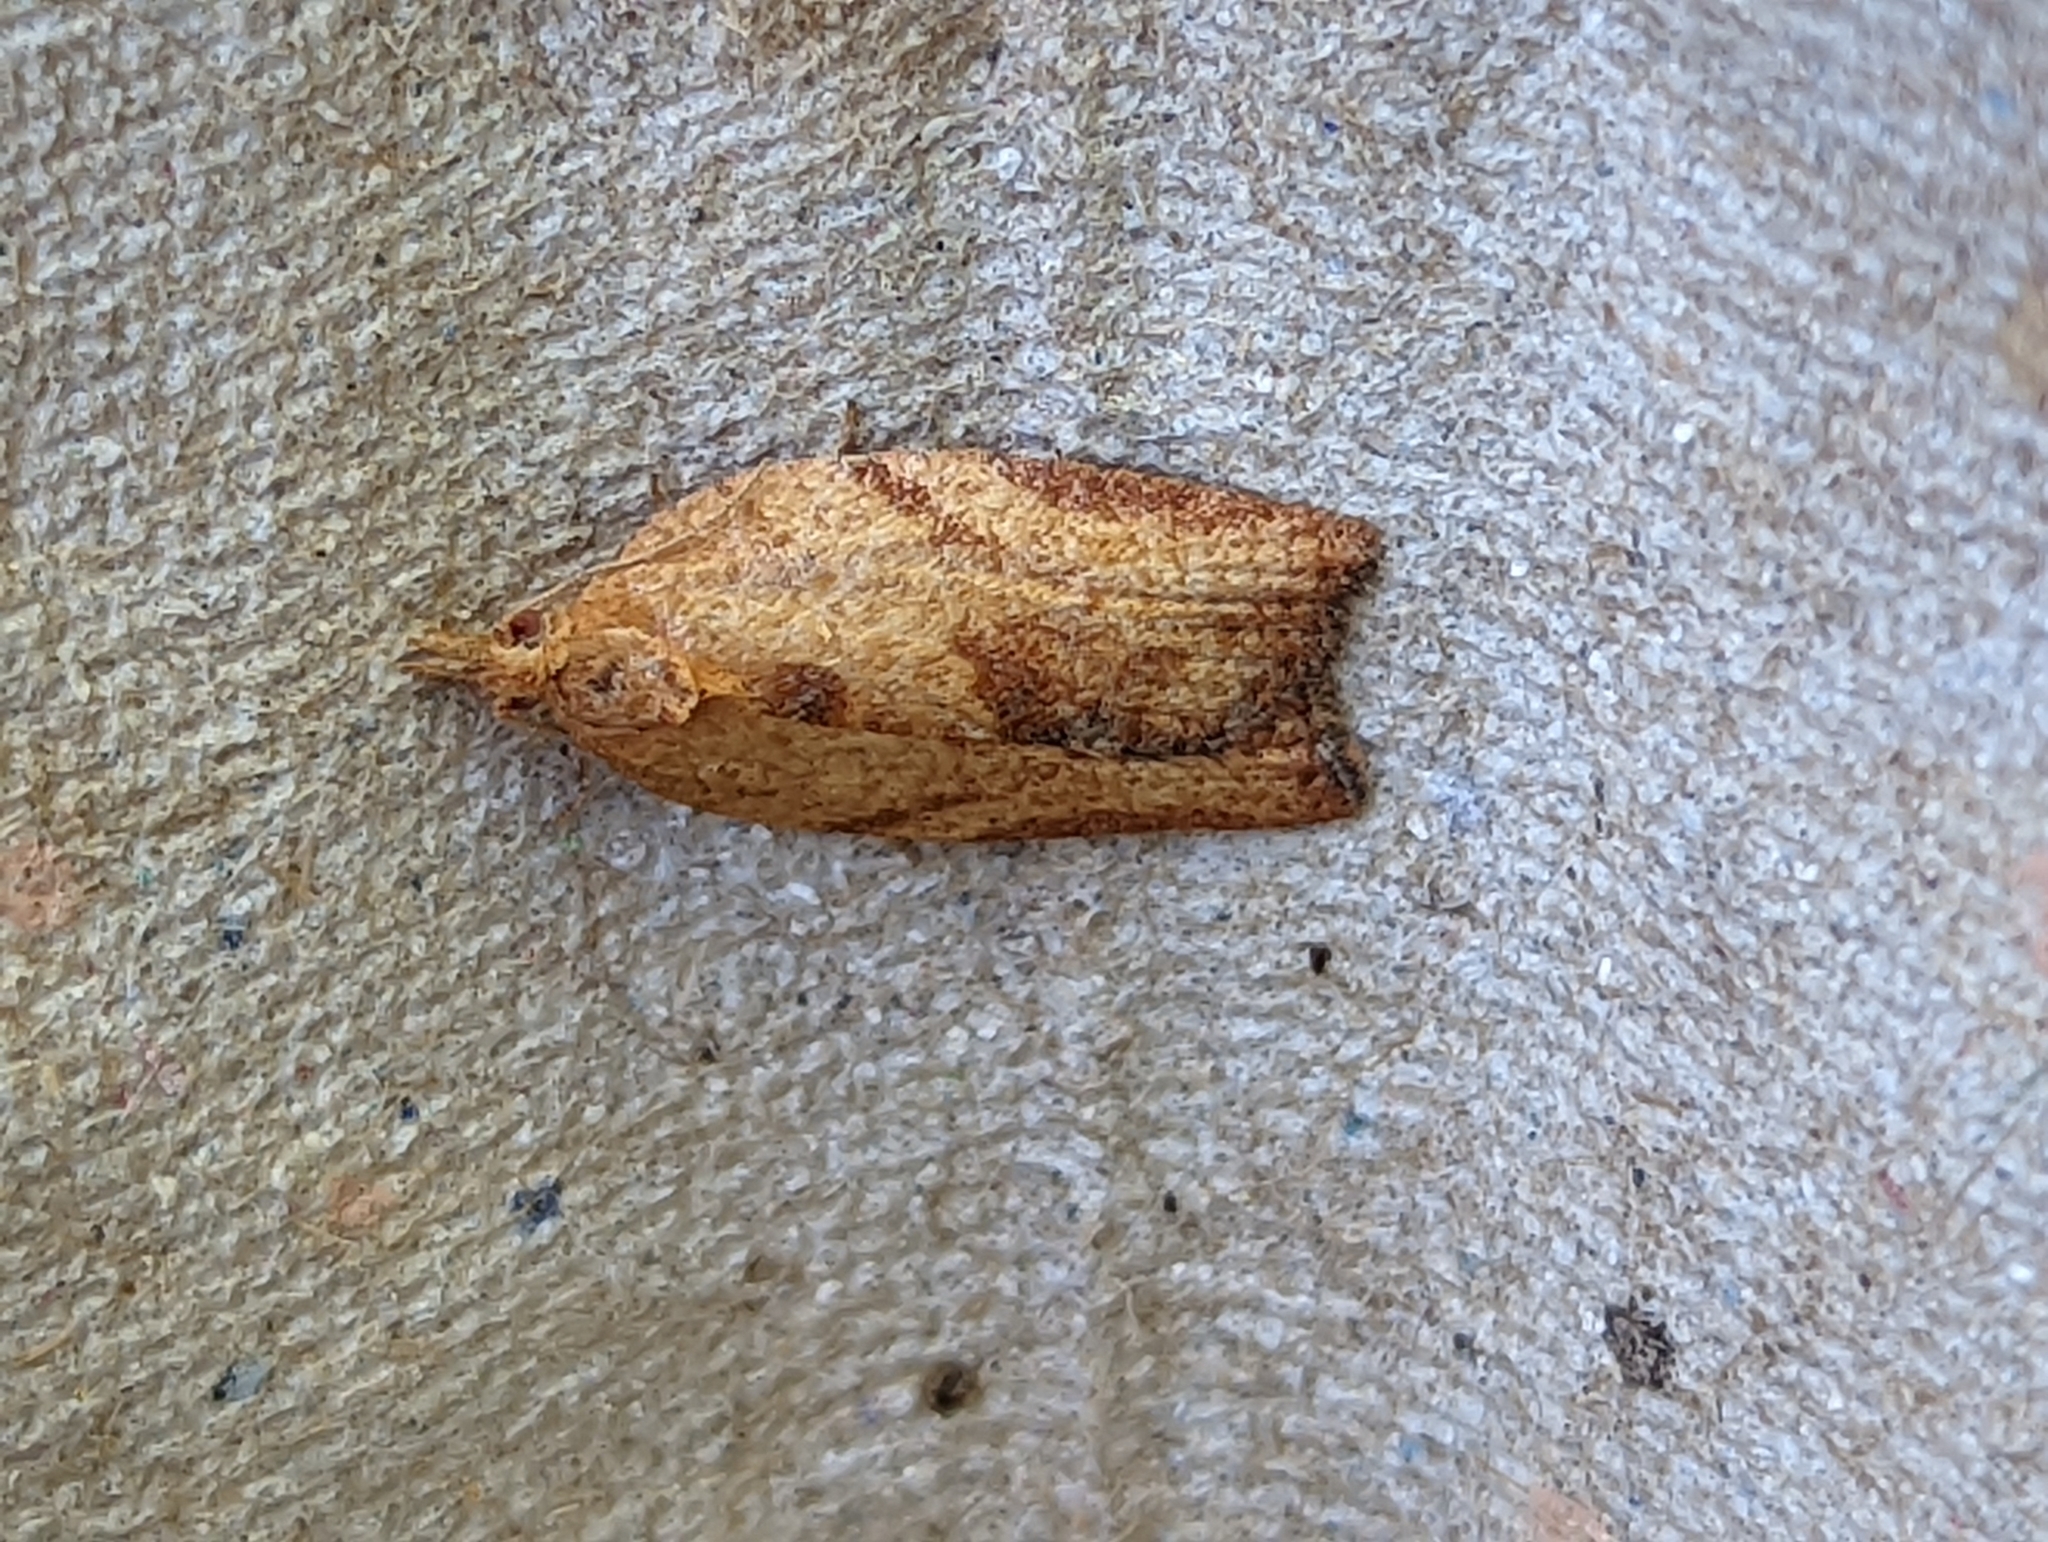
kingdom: Animalia
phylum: Arthropoda
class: Insecta
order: Lepidoptera
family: Tortricidae
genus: Epiphyas
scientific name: Epiphyas postvittana
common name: Light brown apple moth
